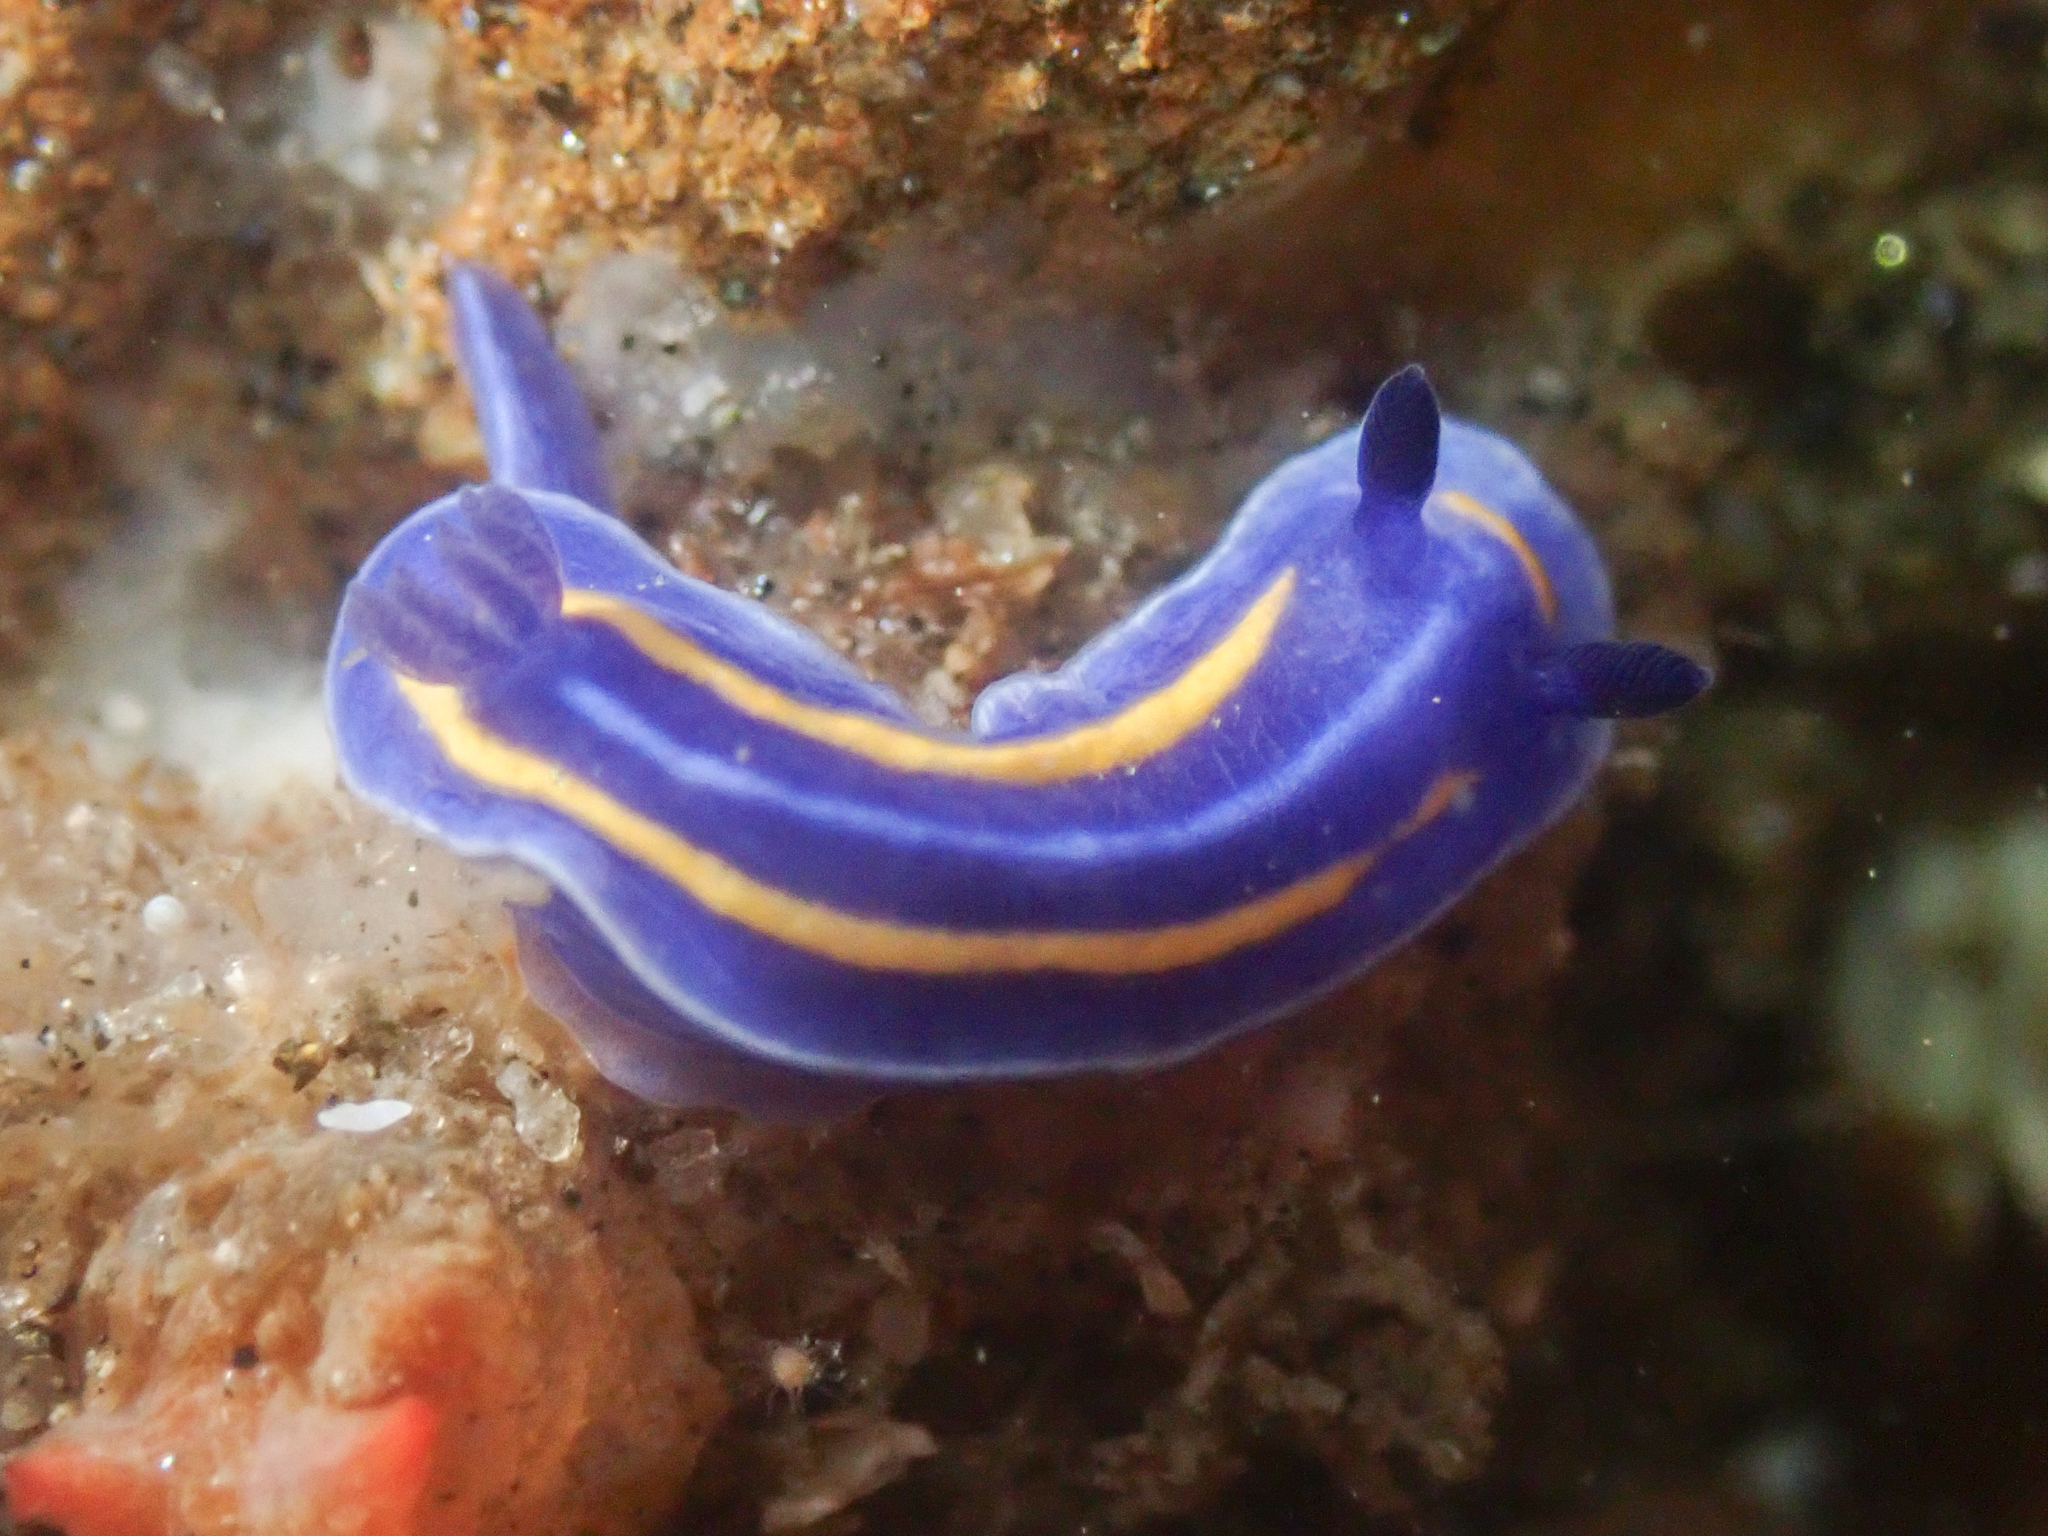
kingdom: Animalia
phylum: Mollusca
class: Gastropoda
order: Nudibranchia
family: Chromodorididae
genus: Felimare
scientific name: Felimare porterae
